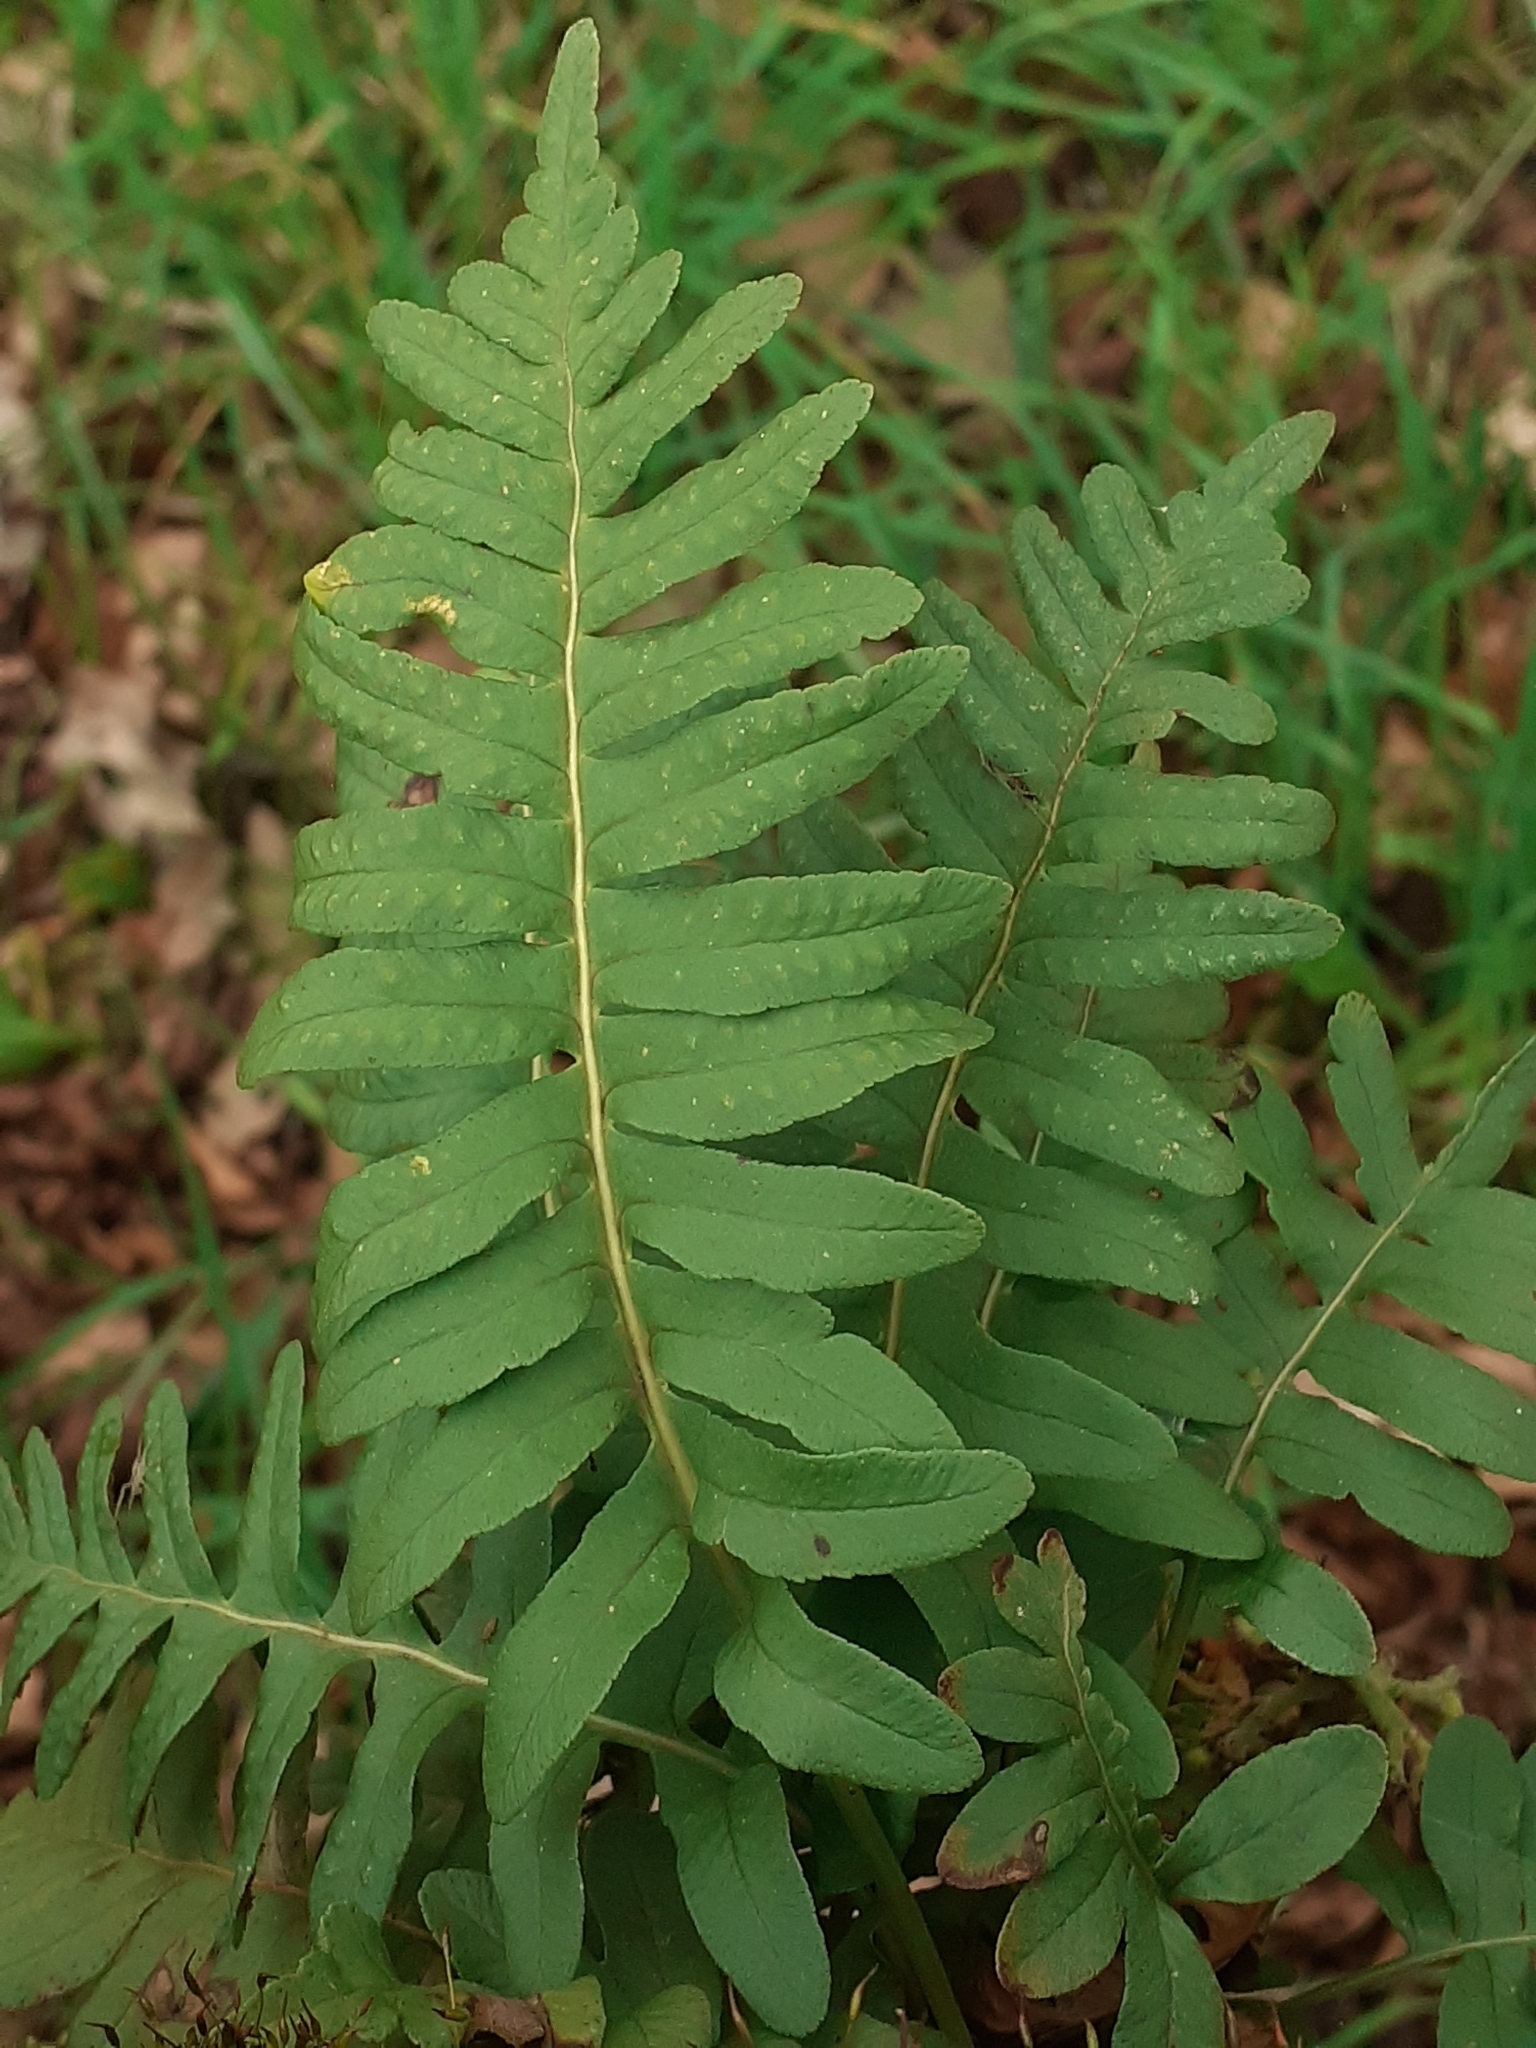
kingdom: Plantae
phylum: Tracheophyta
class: Polypodiopsida
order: Polypodiales
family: Polypodiaceae
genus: Polypodium
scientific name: Polypodium
